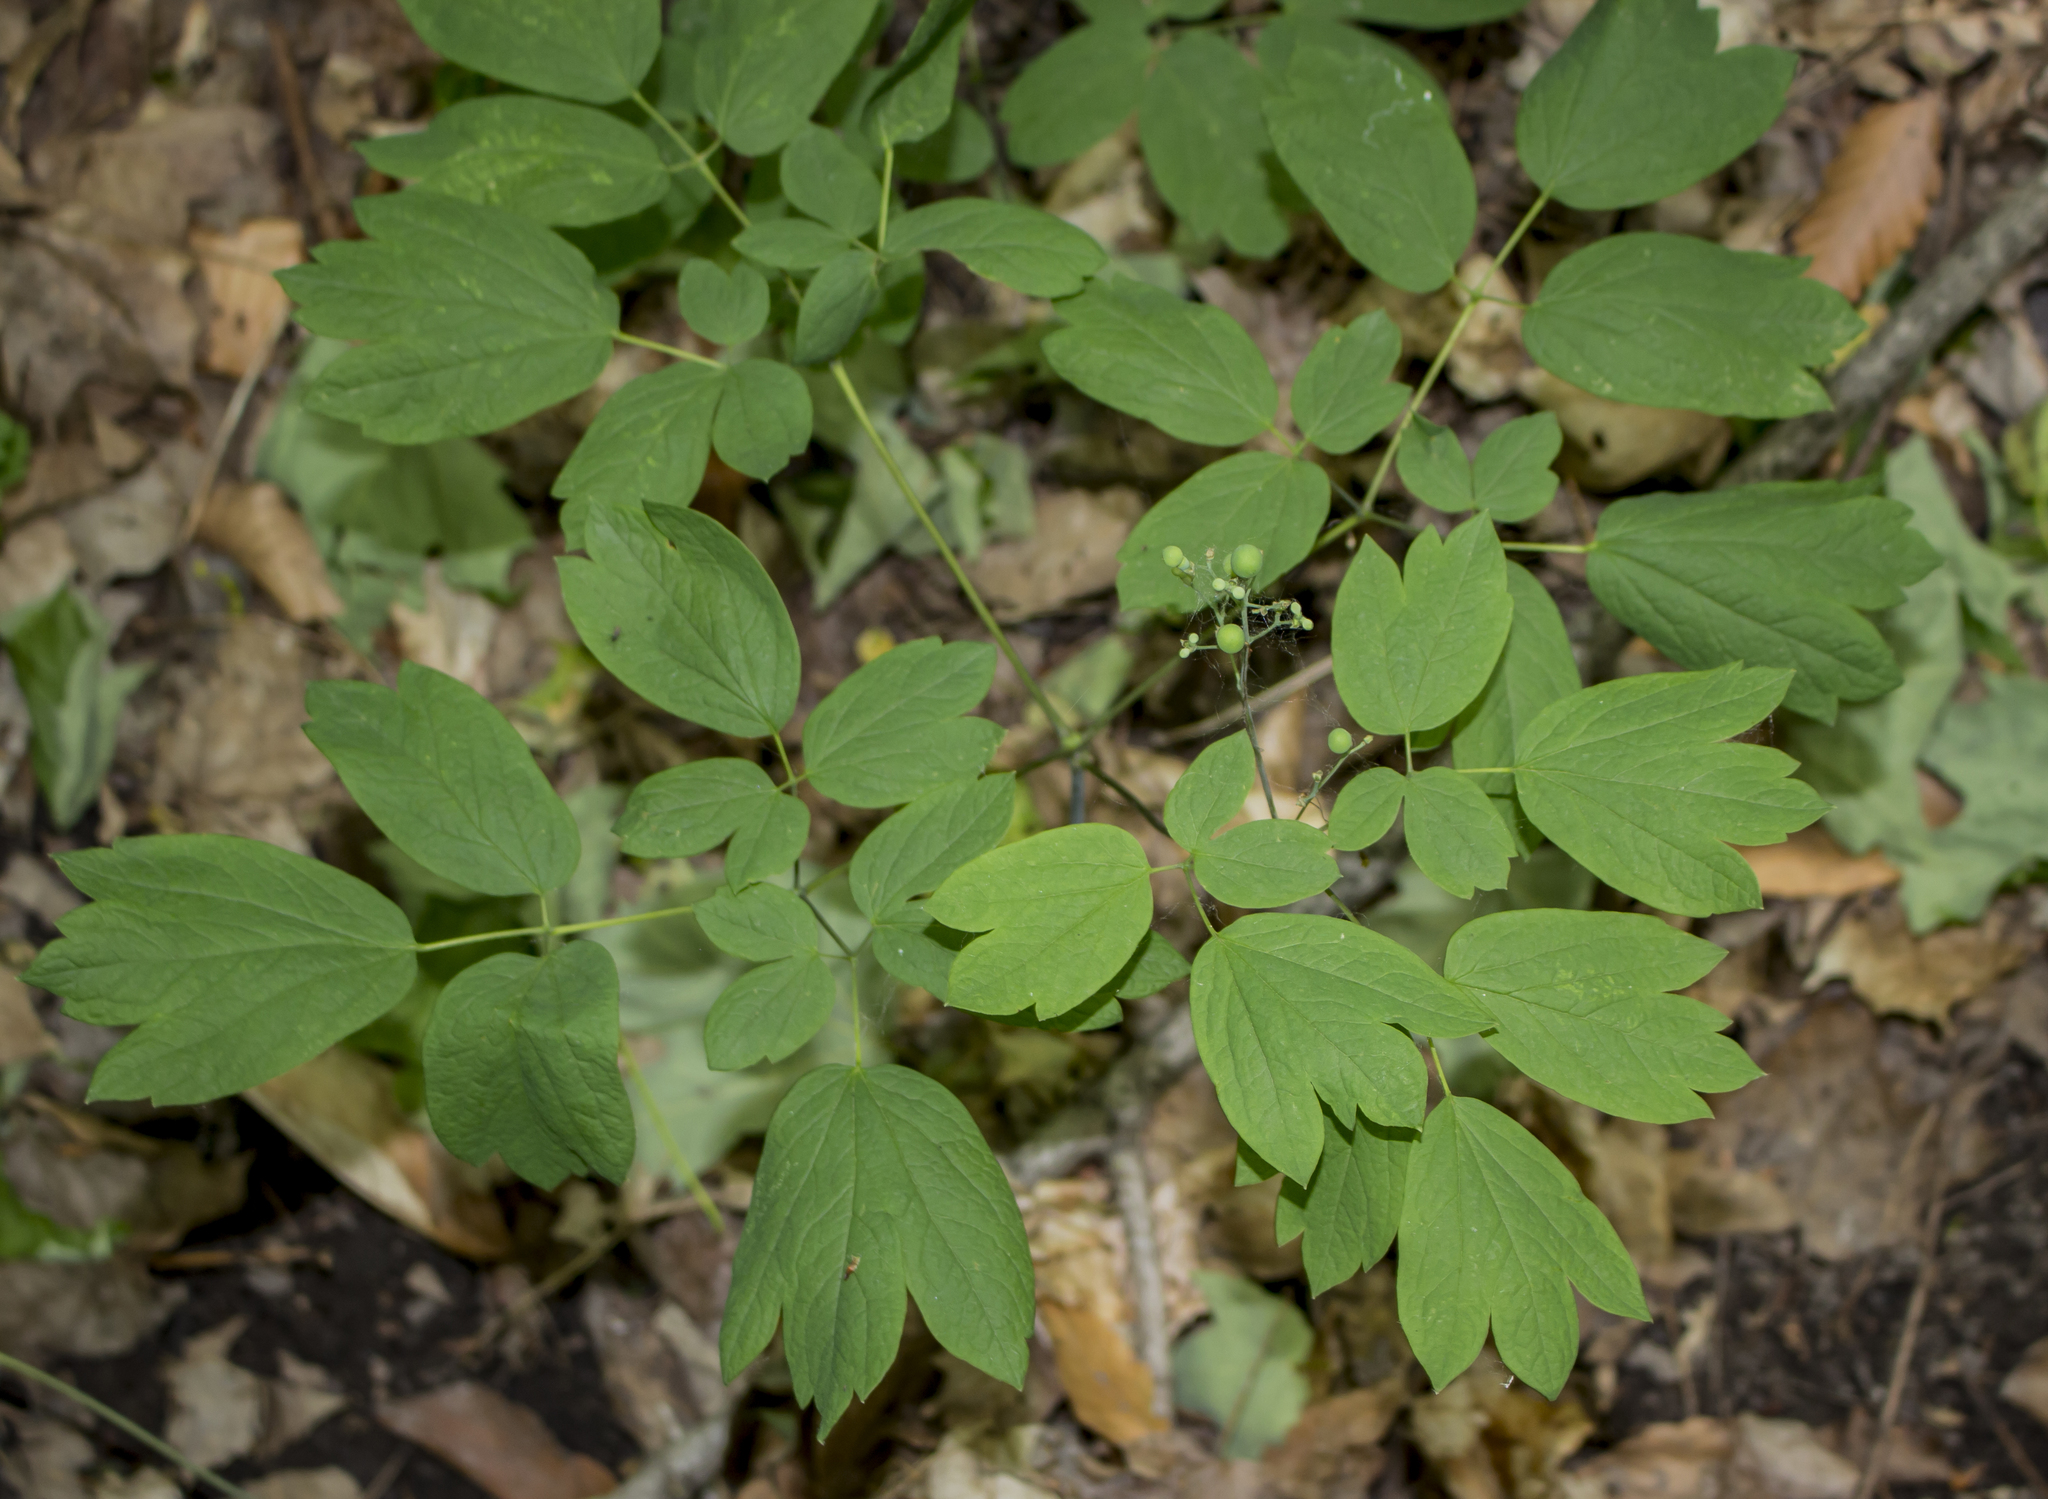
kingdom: Plantae
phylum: Tracheophyta
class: Magnoliopsida
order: Ranunculales
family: Berberidaceae
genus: Caulophyllum
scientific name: Caulophyllum thalictroides
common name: Blue cohosh
